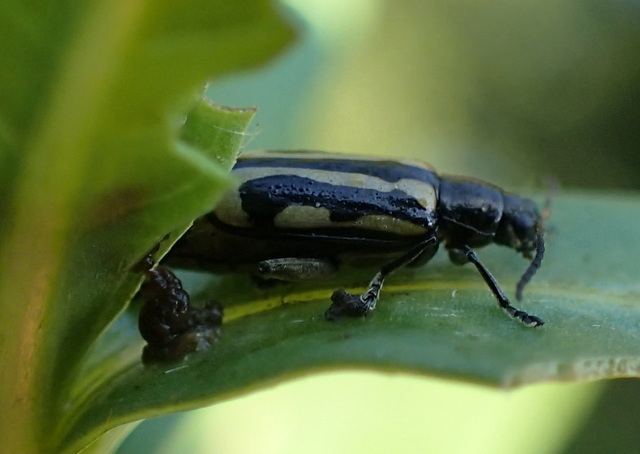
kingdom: Animalia
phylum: Arthropoda
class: Insecta
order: Coleoptera
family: Chrysomelidae
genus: Agasicles
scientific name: Agasicles hygrophila
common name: Alligatorweed flea beetle
